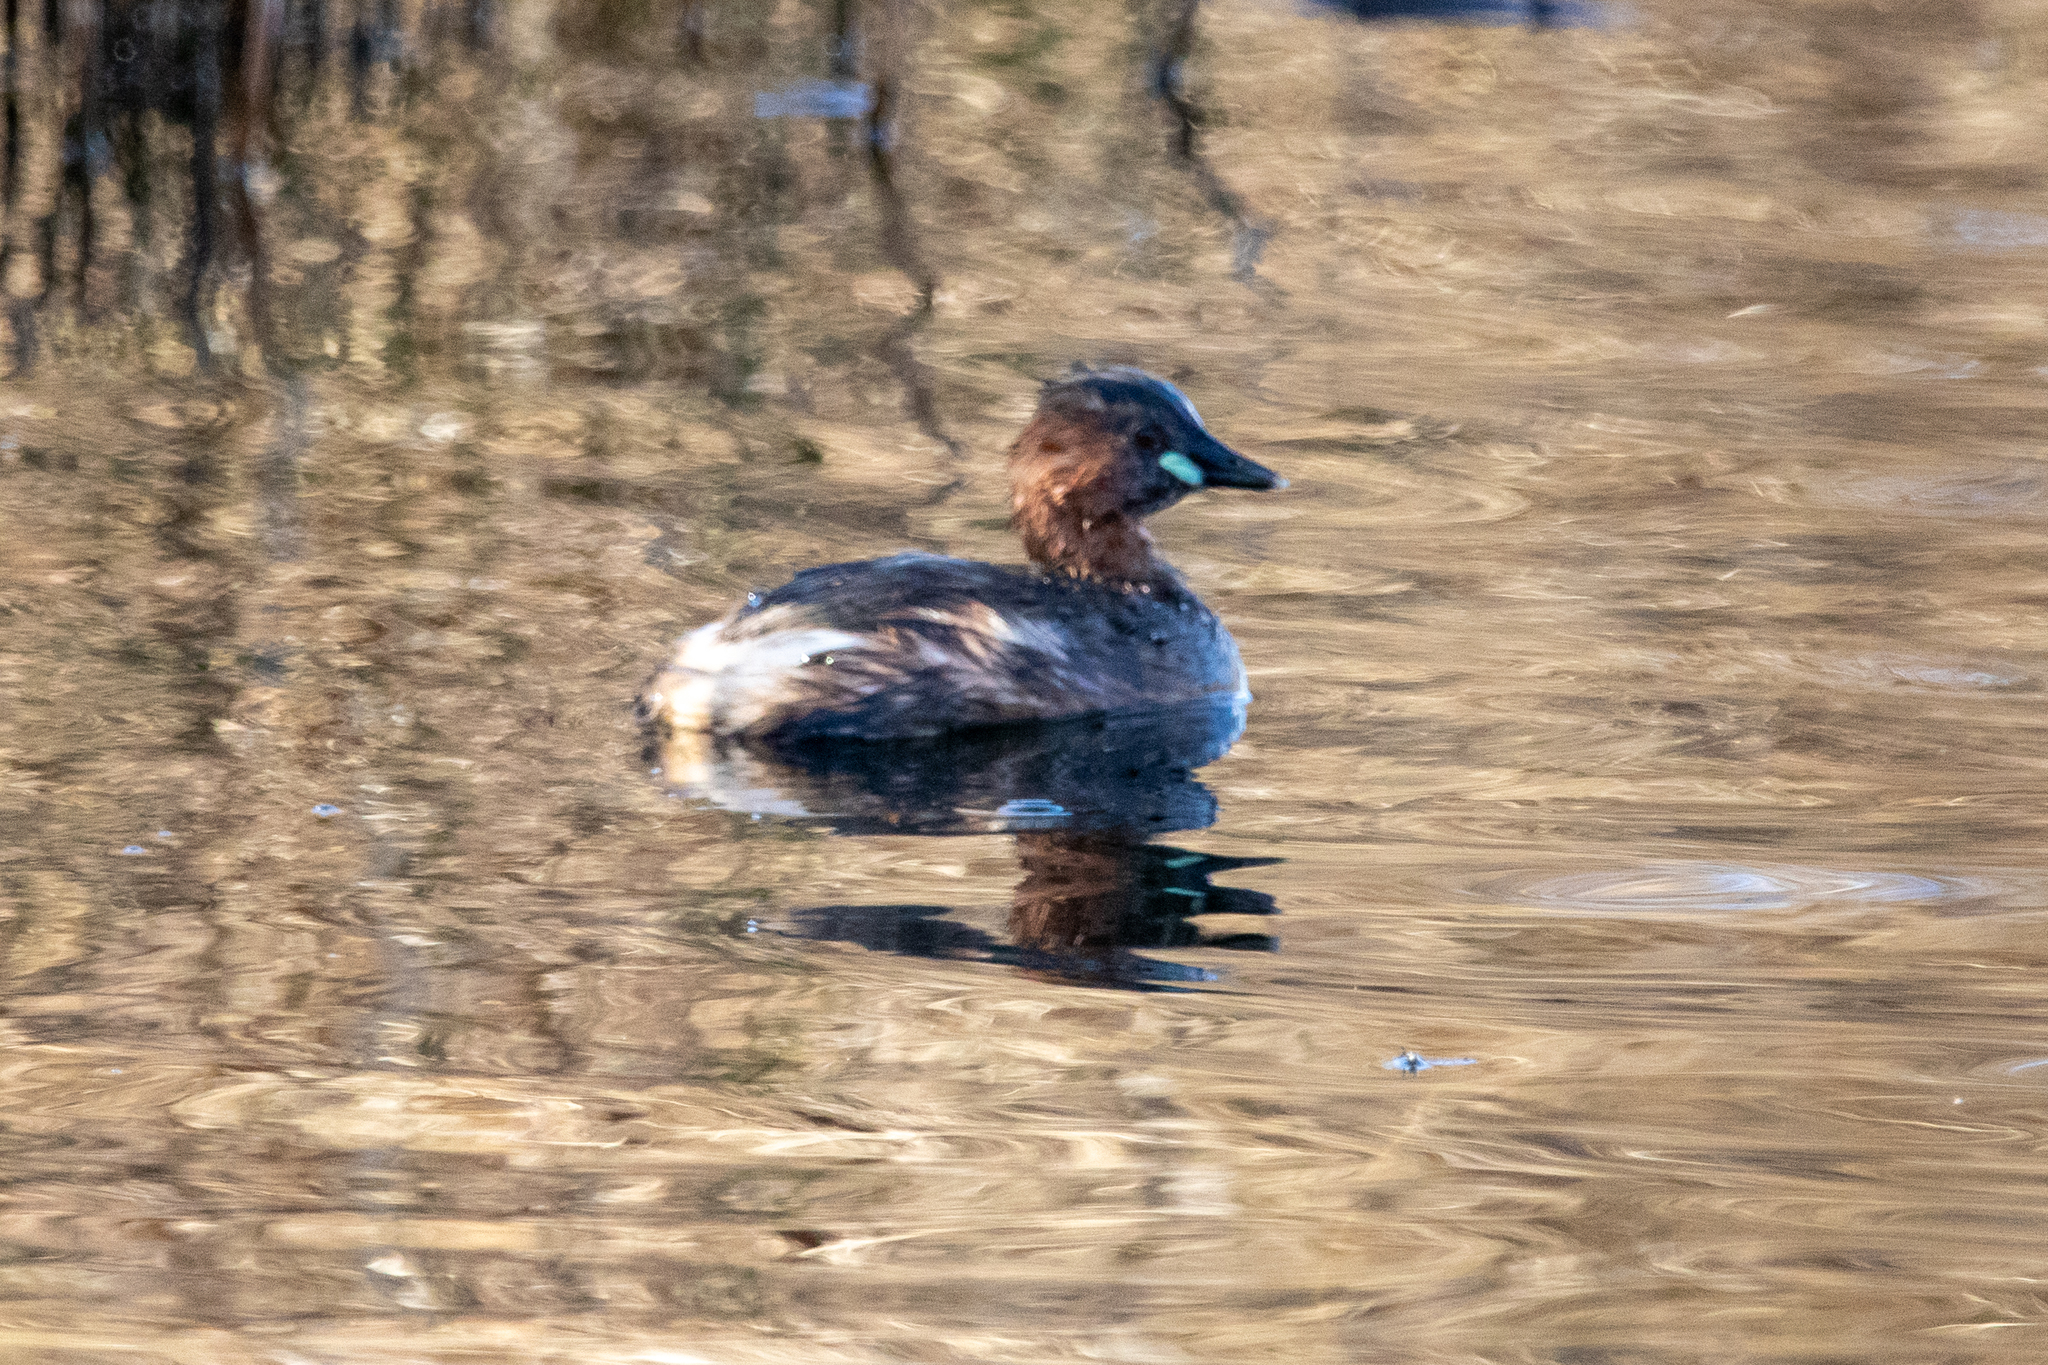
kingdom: Animalia
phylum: Chordata
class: Aves
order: Podicipediformes
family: Podicipedidae
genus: Tachybaptus
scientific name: Tachybaptus ruficollis
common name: Little grebe
